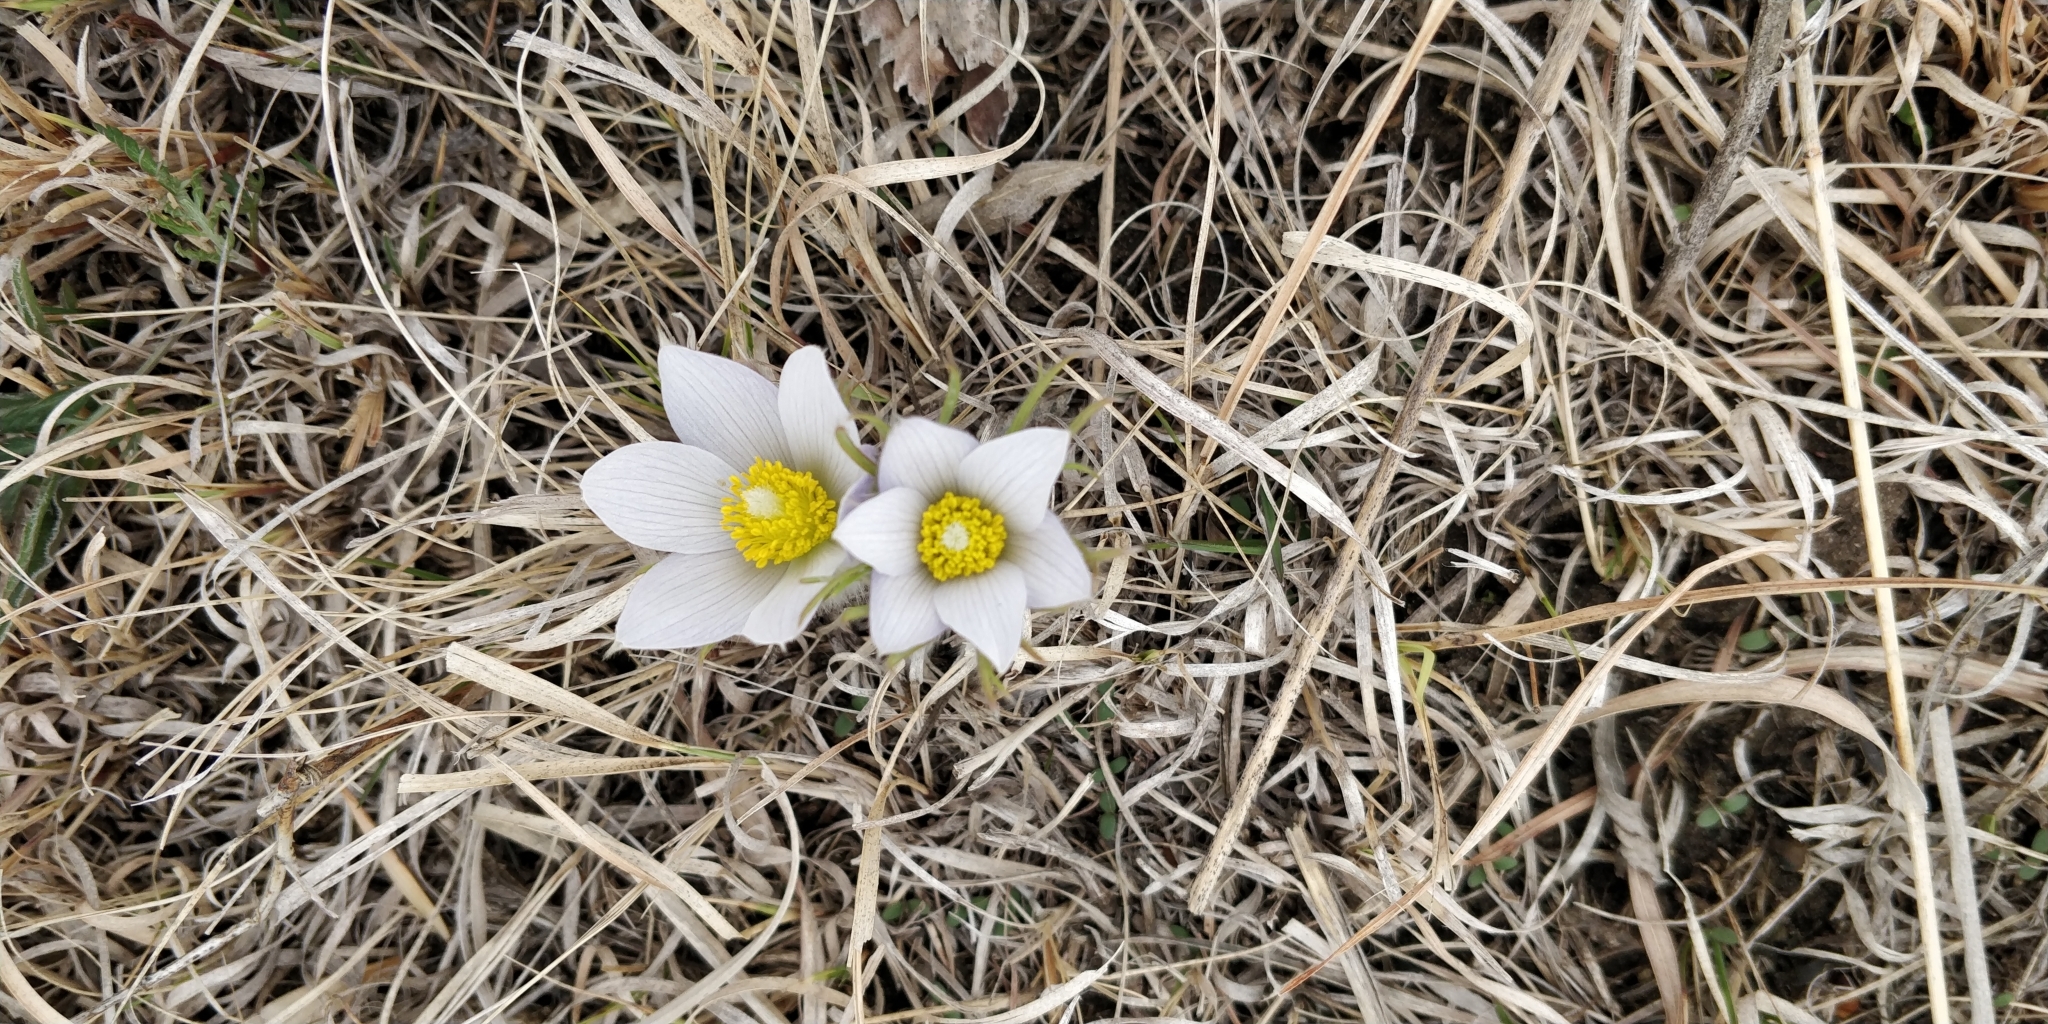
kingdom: Plantae
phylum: Tracheophyta
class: Magnoliopsida
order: Ranunculales
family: Ranunculaceae
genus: Pulsatilla
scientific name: Pulsatilla nuttalliana
